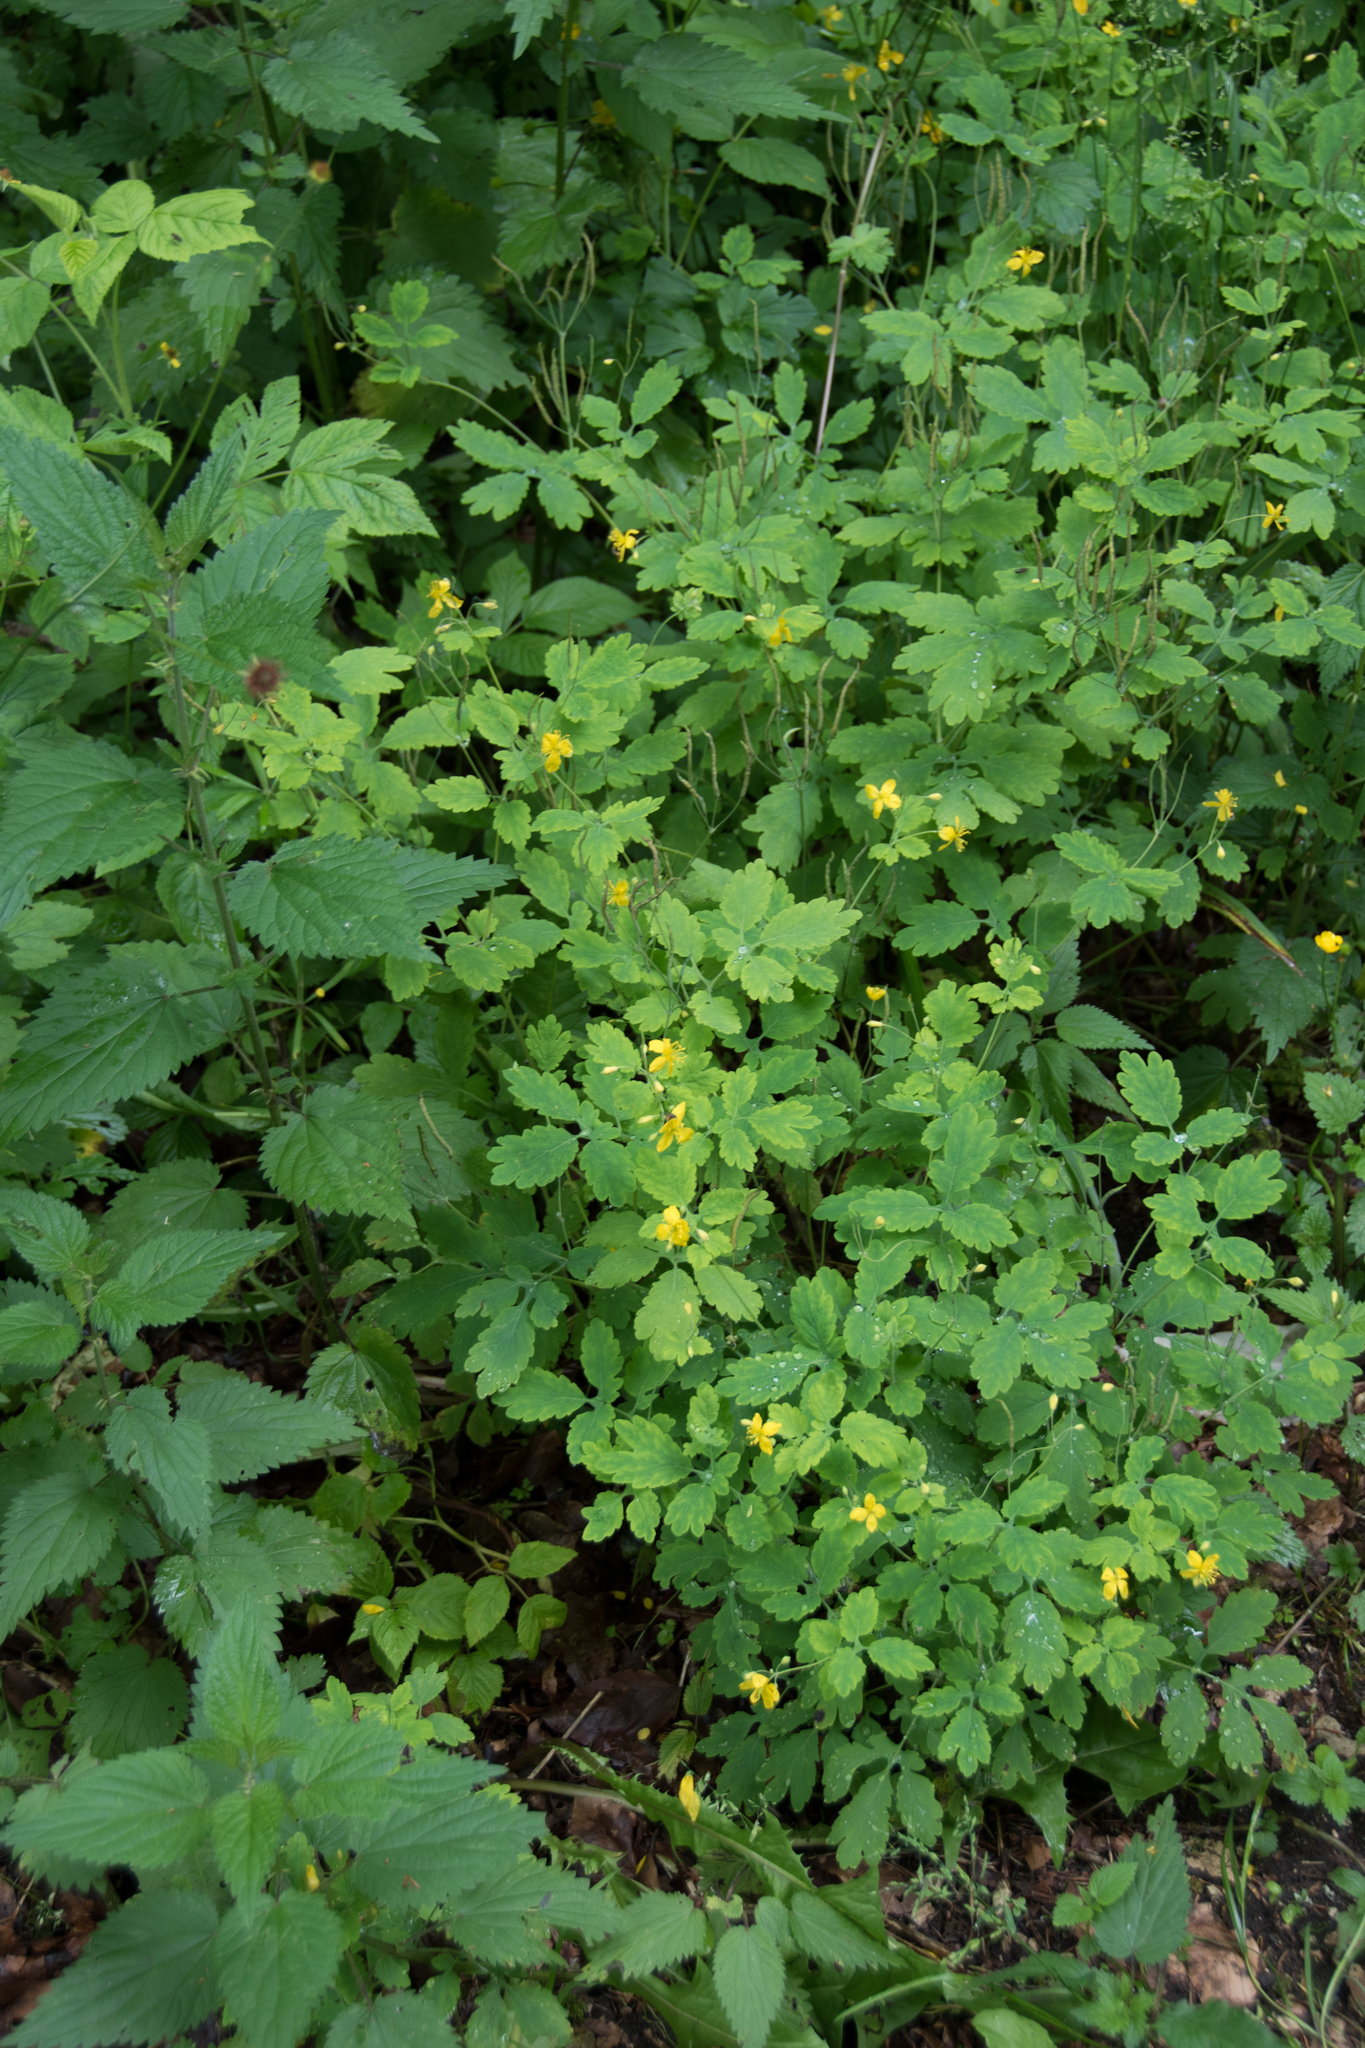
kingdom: Plantae
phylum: Tracheophyta
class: Magnoliopsida
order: Ranunculales
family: Papaveraceae
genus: Chelidonium
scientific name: Chelidonium majus
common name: Greater celandine
